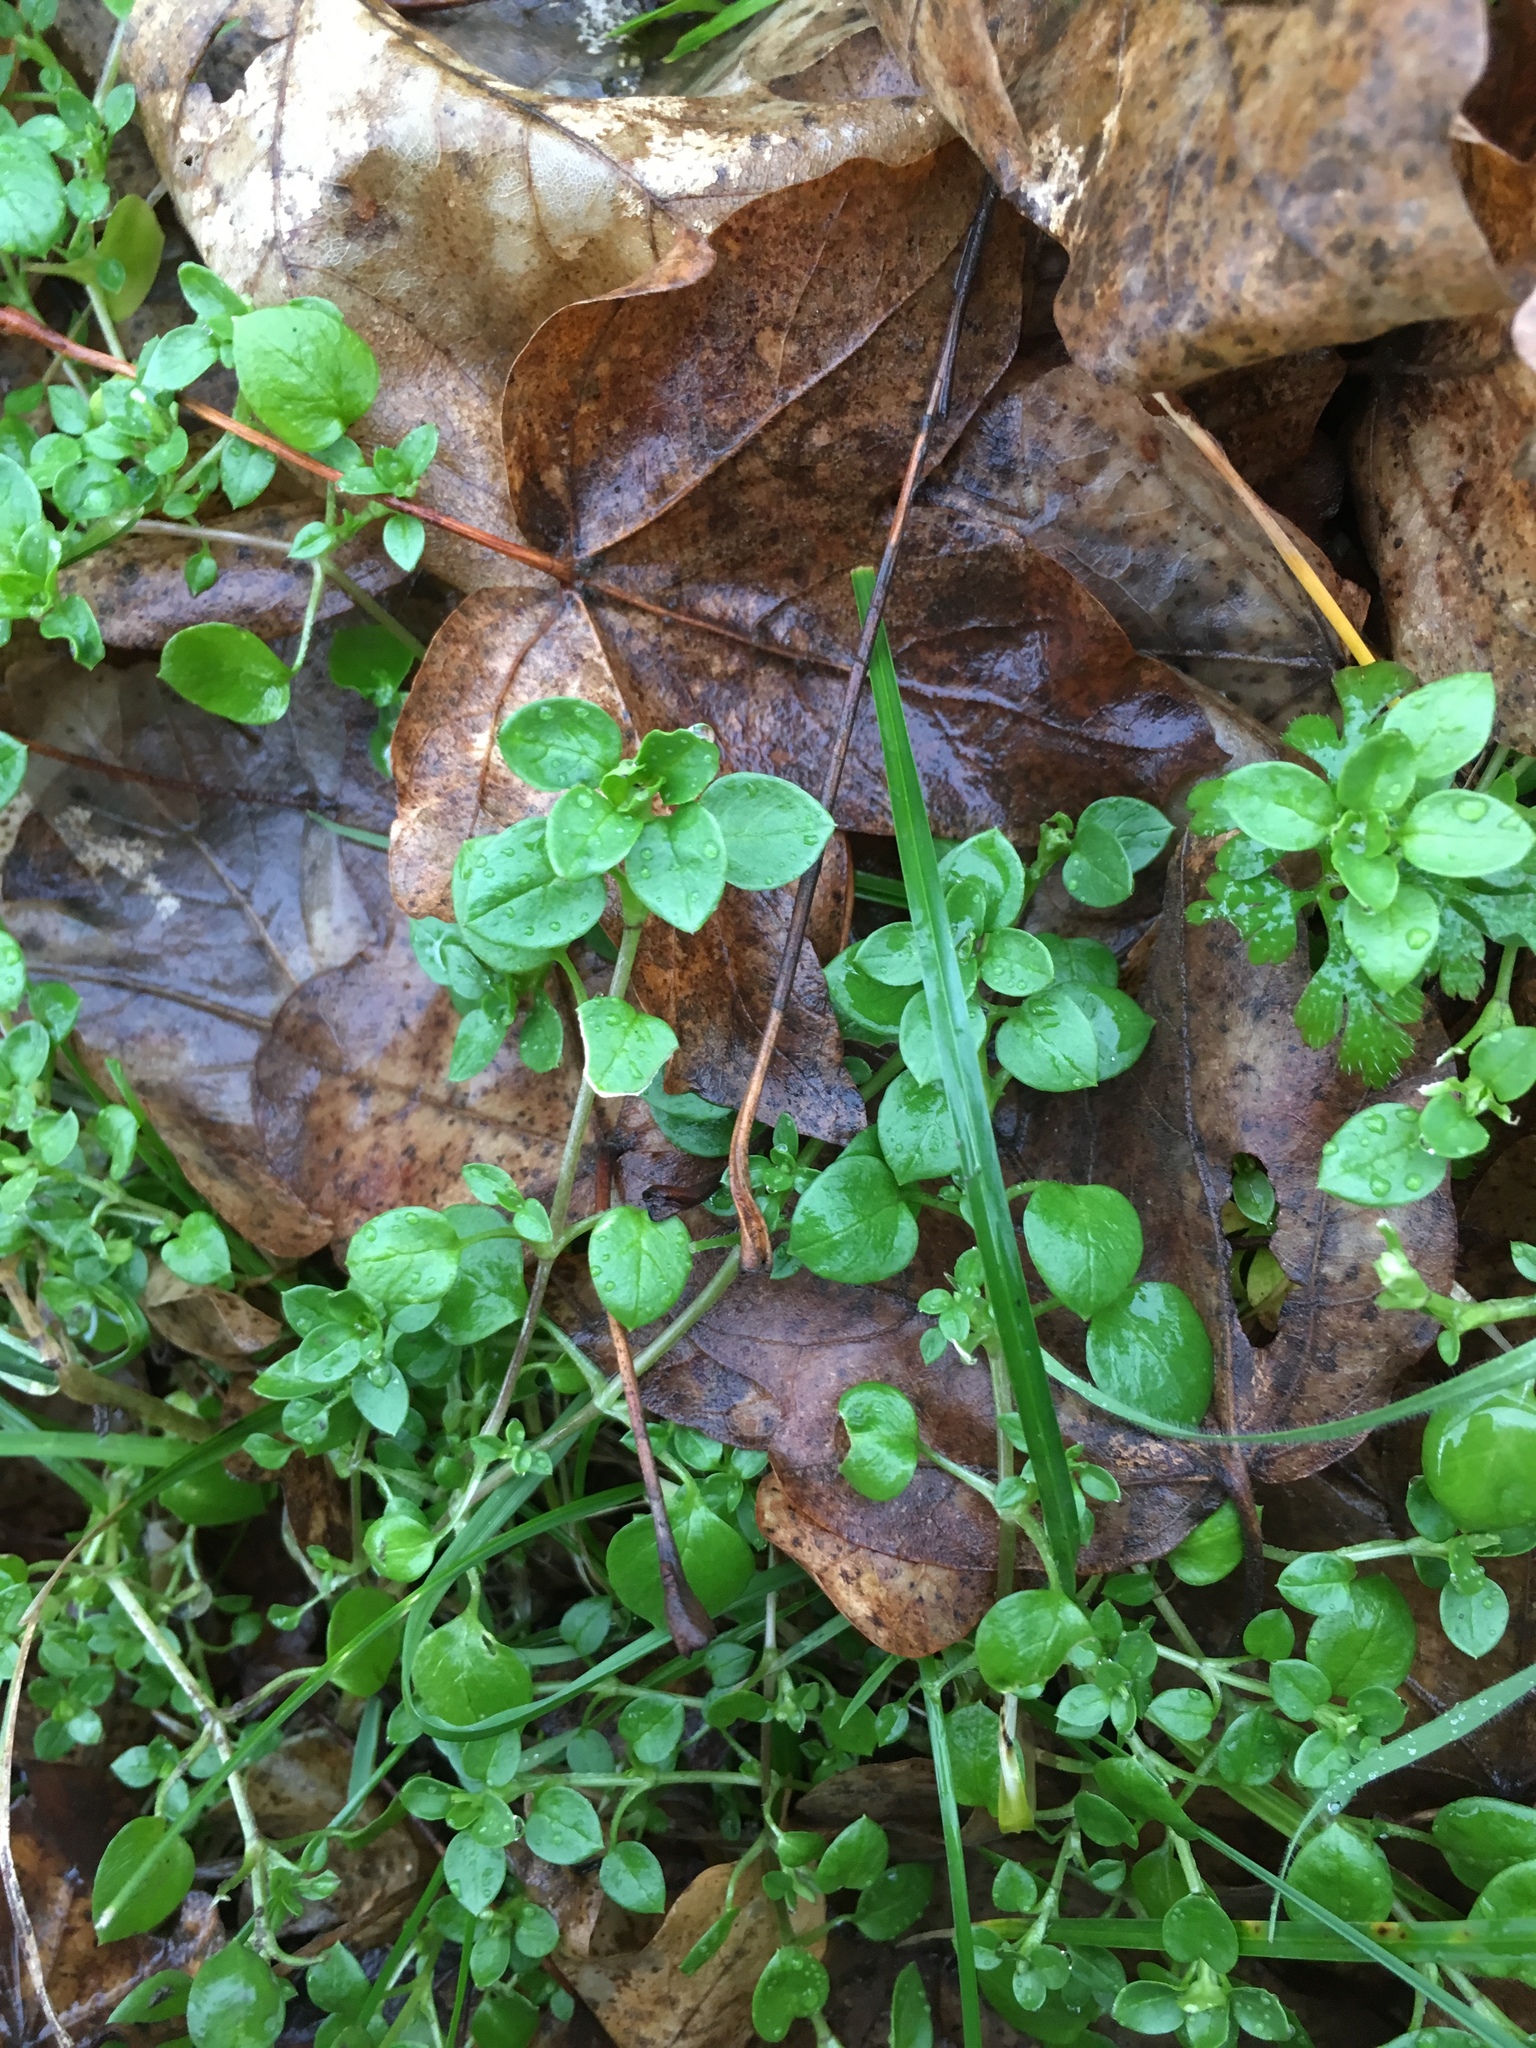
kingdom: Plantae
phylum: Tracheophyta
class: Magnoliopsida
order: Caryophyllales
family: Caryophyllaceae
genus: Stellaria
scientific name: Stellaria media
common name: Common chickweed
